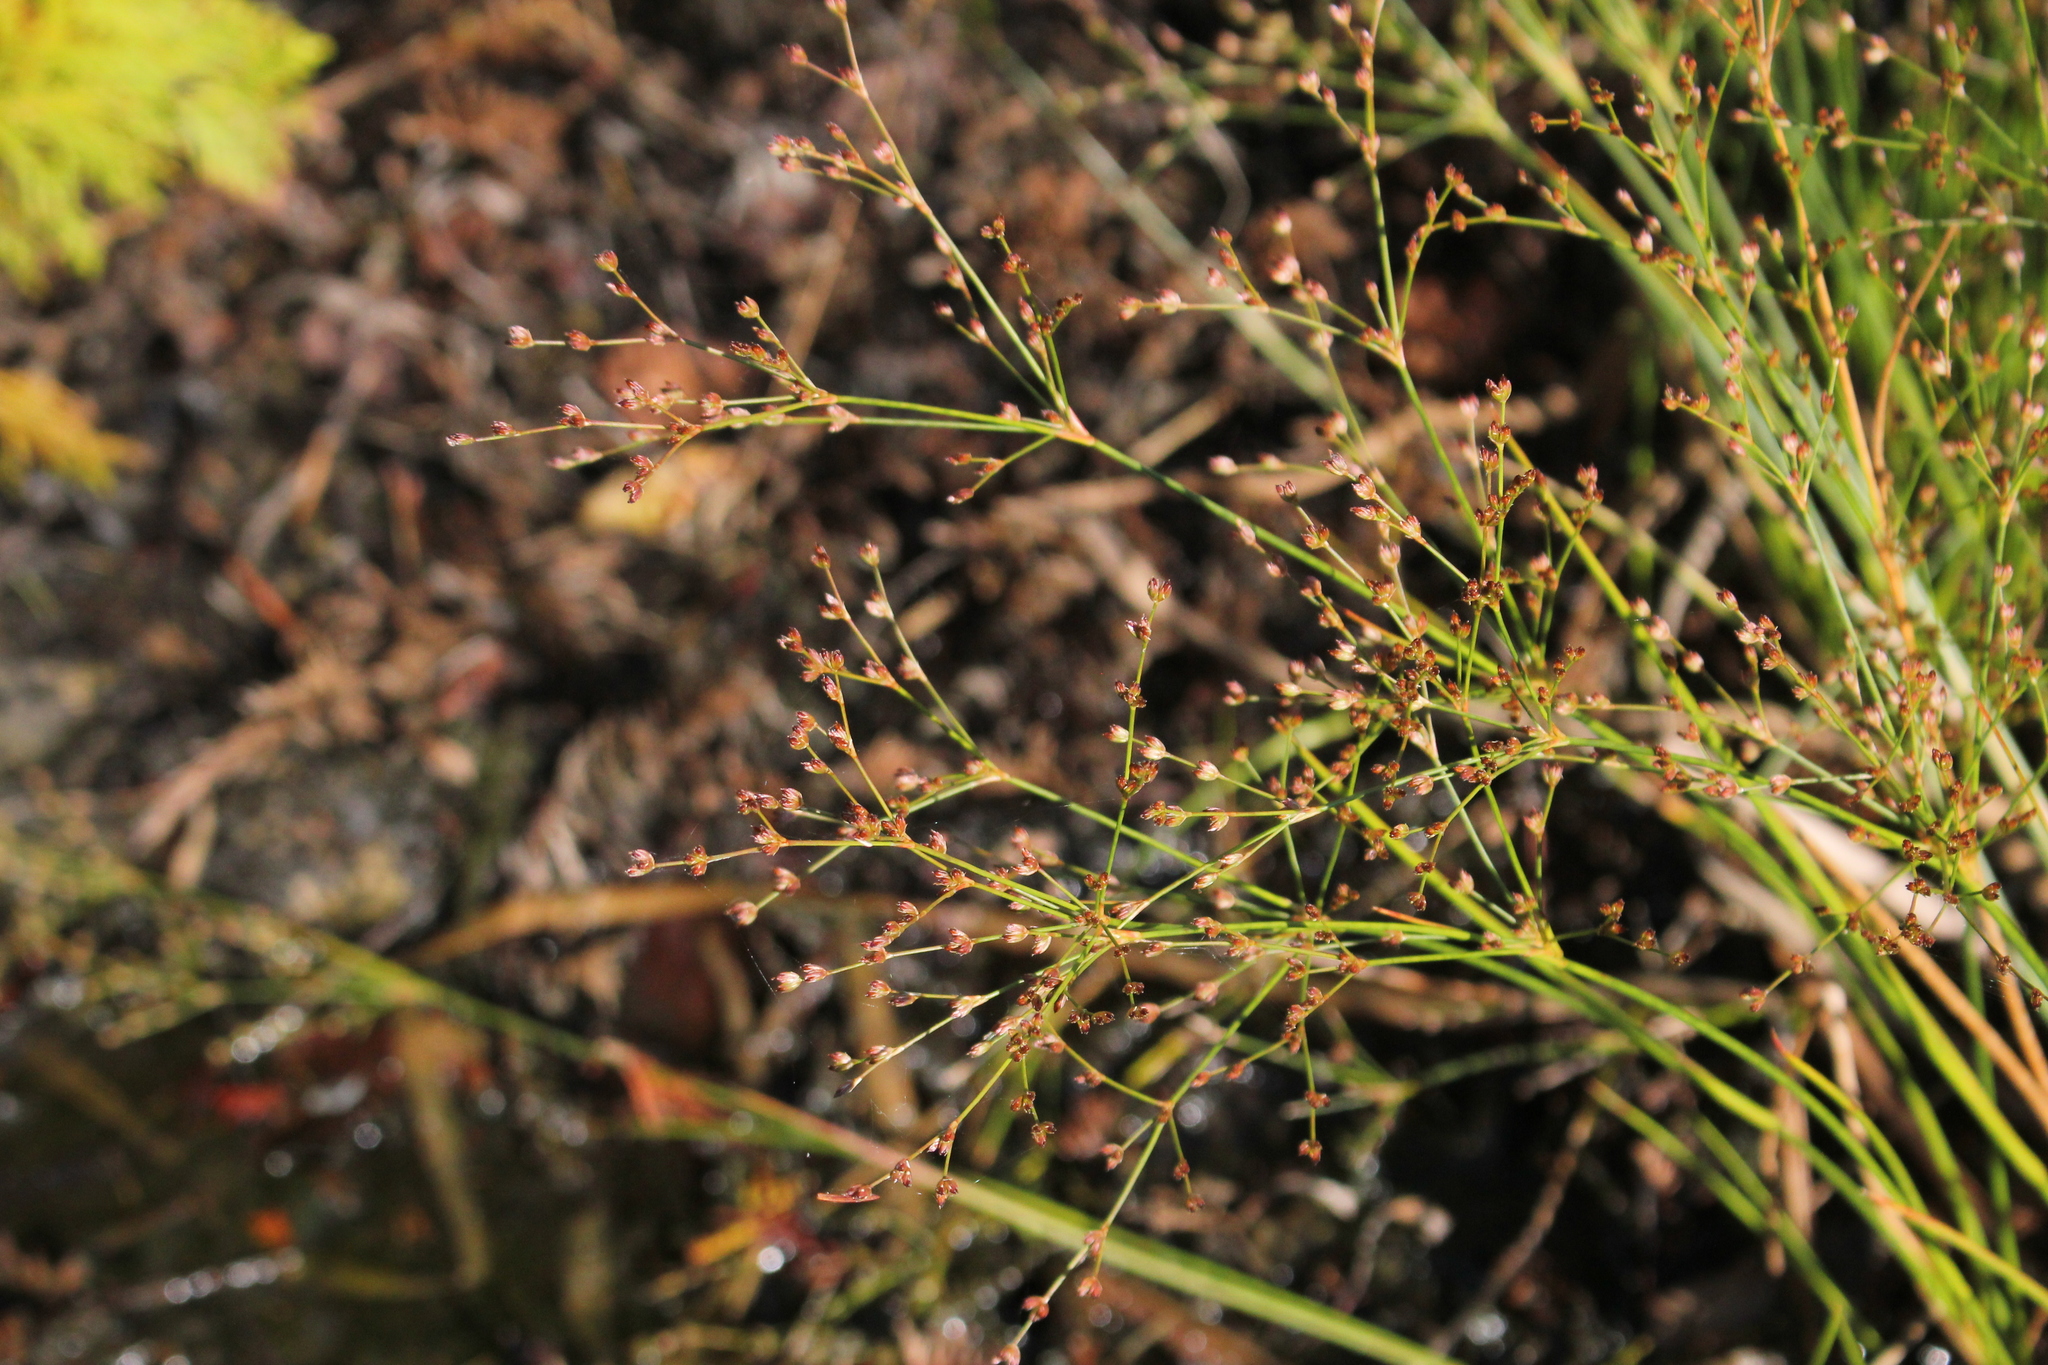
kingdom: Plantae
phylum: Tracheophyta
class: Liliopsida
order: Poales
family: Juncaceae
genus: Juncus
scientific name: Juncus brachycephalus
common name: Short-headed rush
